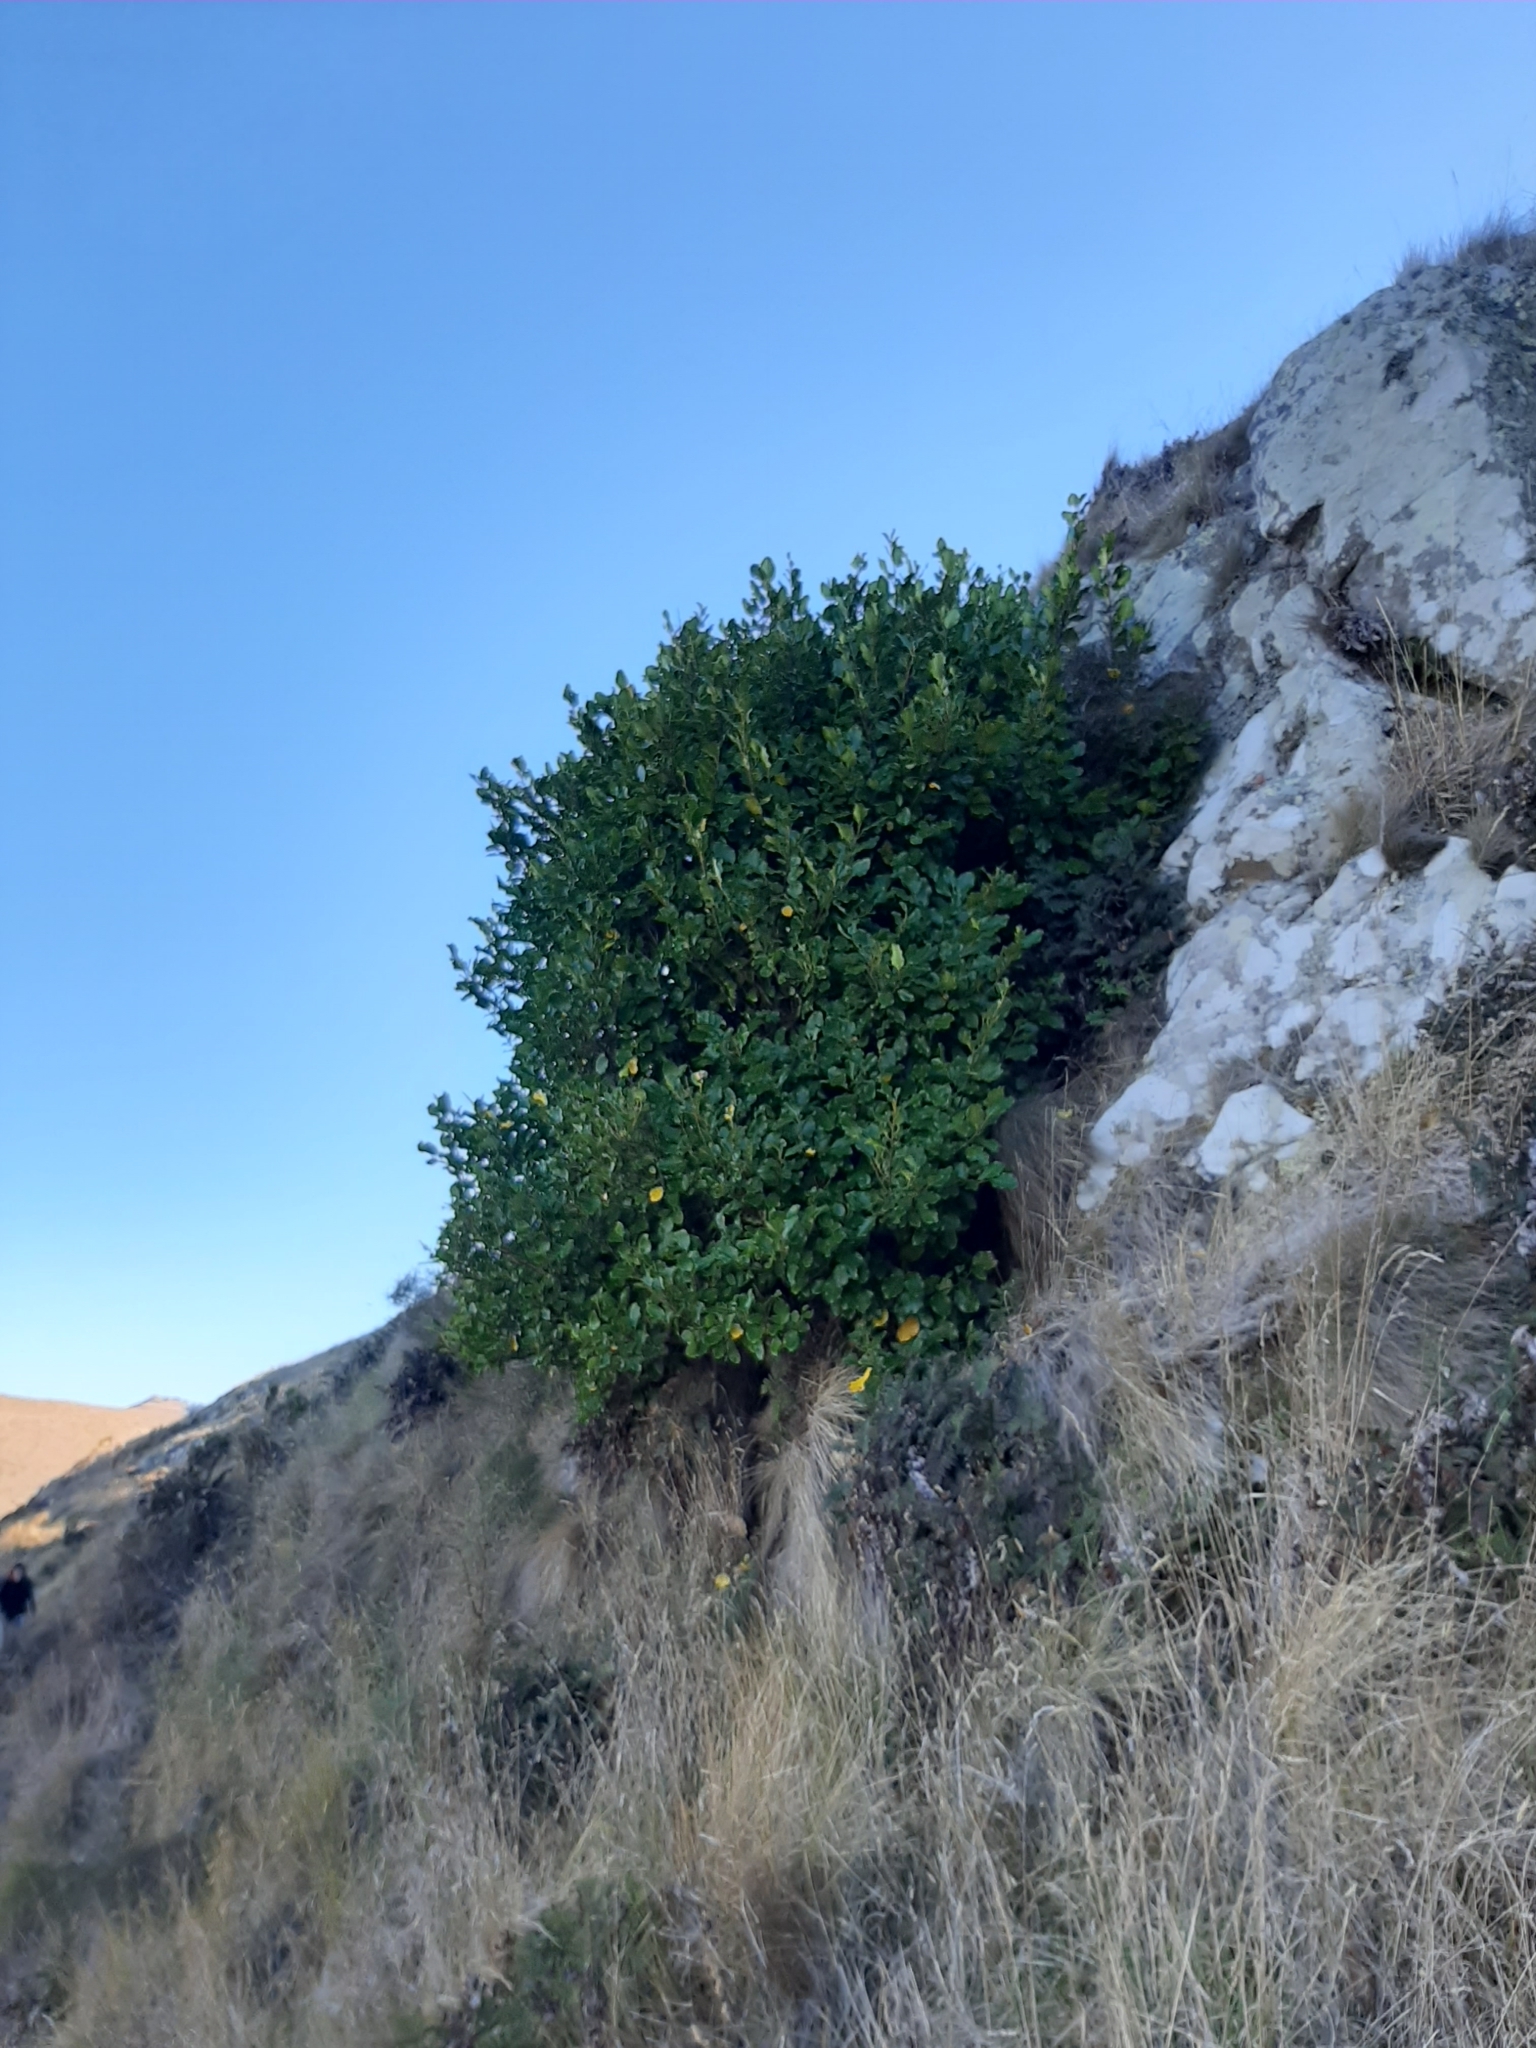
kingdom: Plantae
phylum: Tracheophyta
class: Magnoliopsida
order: Apiales
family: Griseliniaceae
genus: Griselinia
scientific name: Griselinia littoralis
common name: New zealand broadleaf
